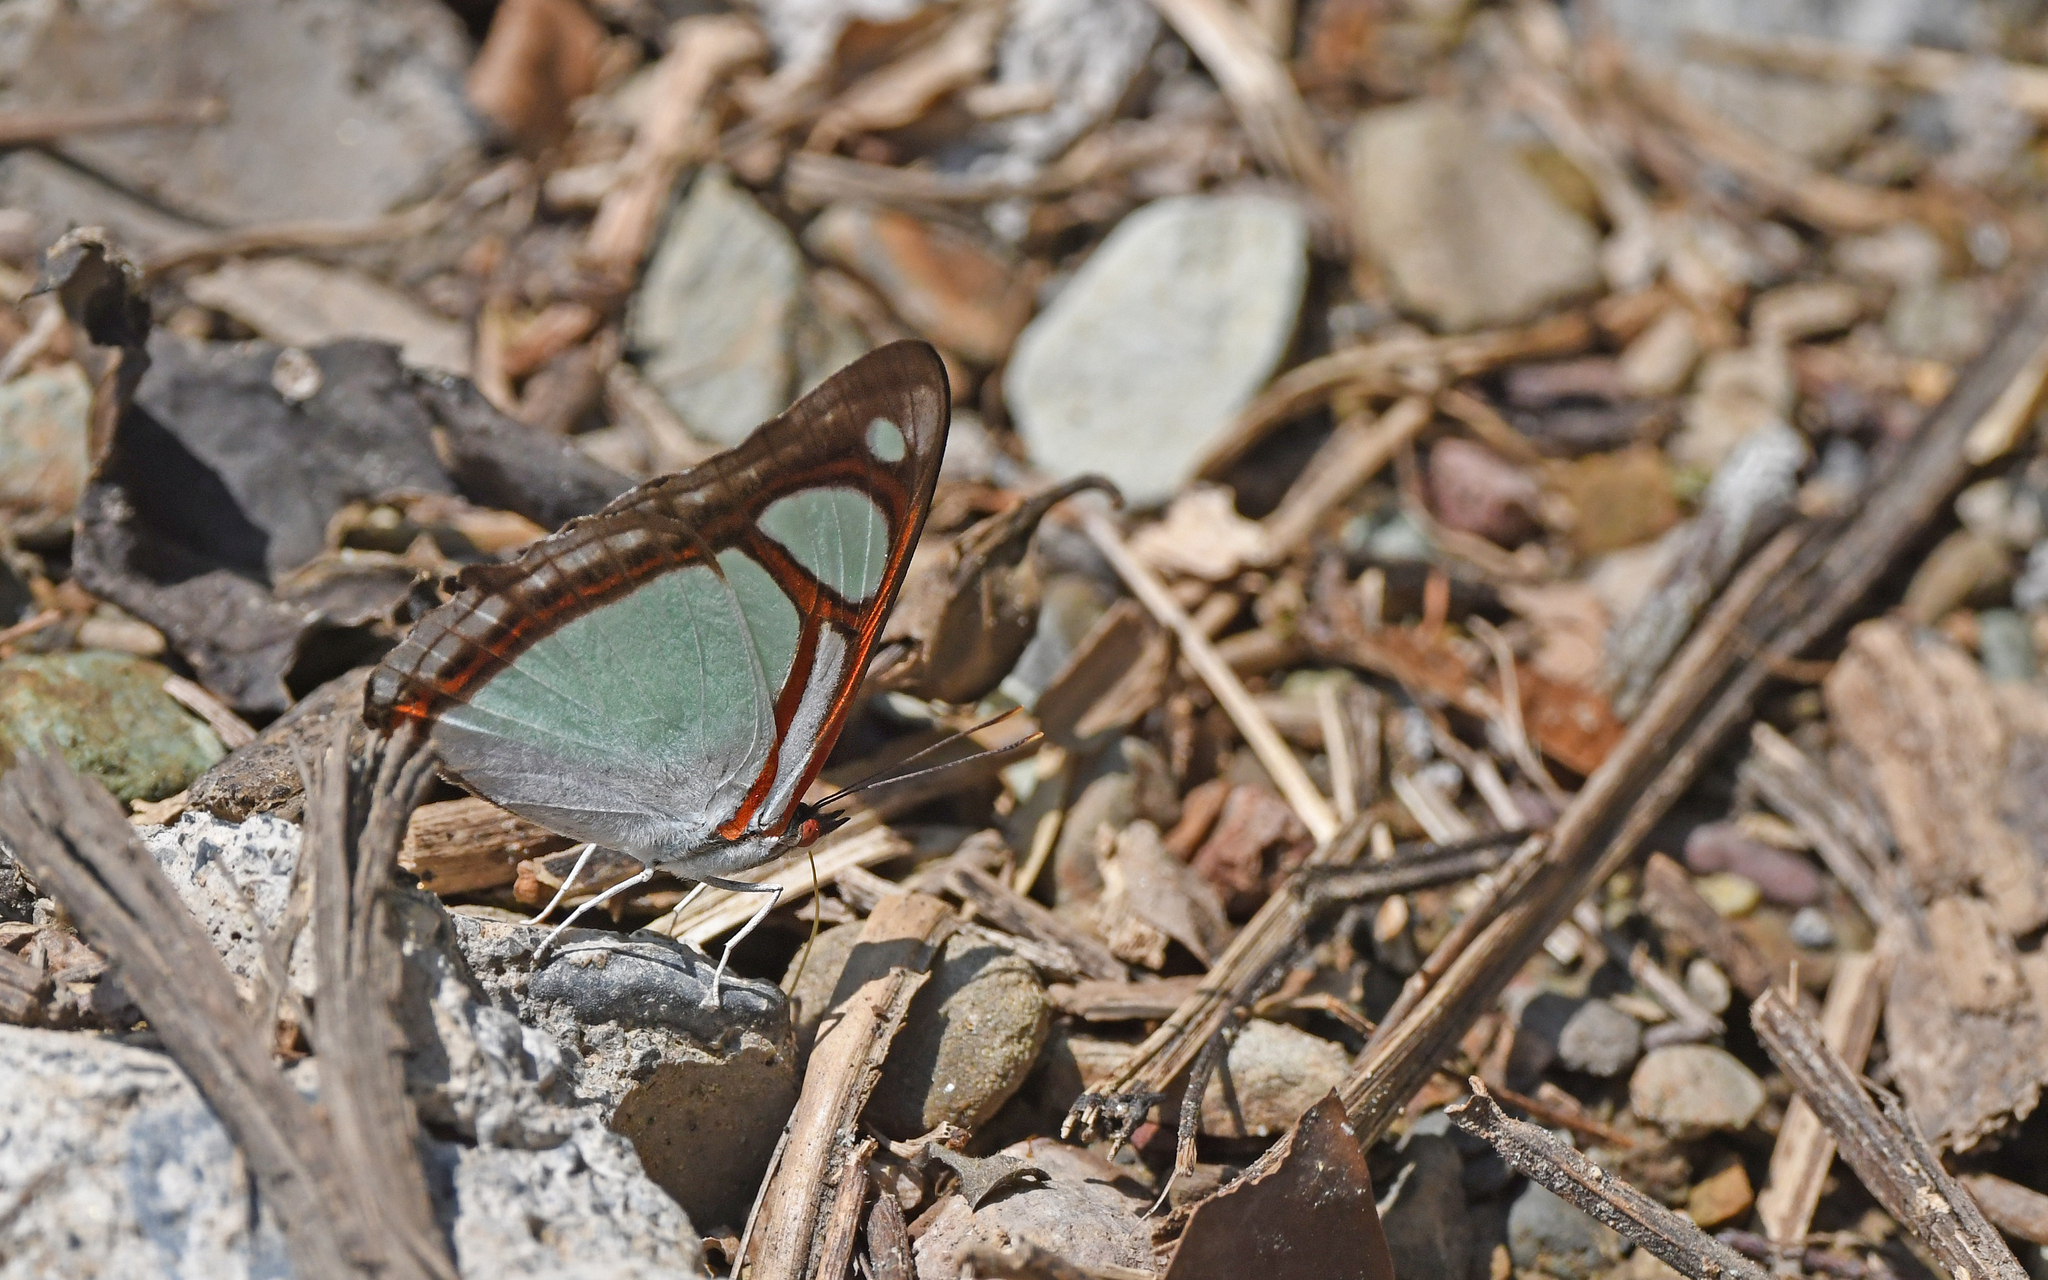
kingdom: Animalia
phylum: Arthropoda
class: Insecta
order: Lepidoptera
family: Nymphalidae
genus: Pyrrhogyra
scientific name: Pyrrhogyra edocla
